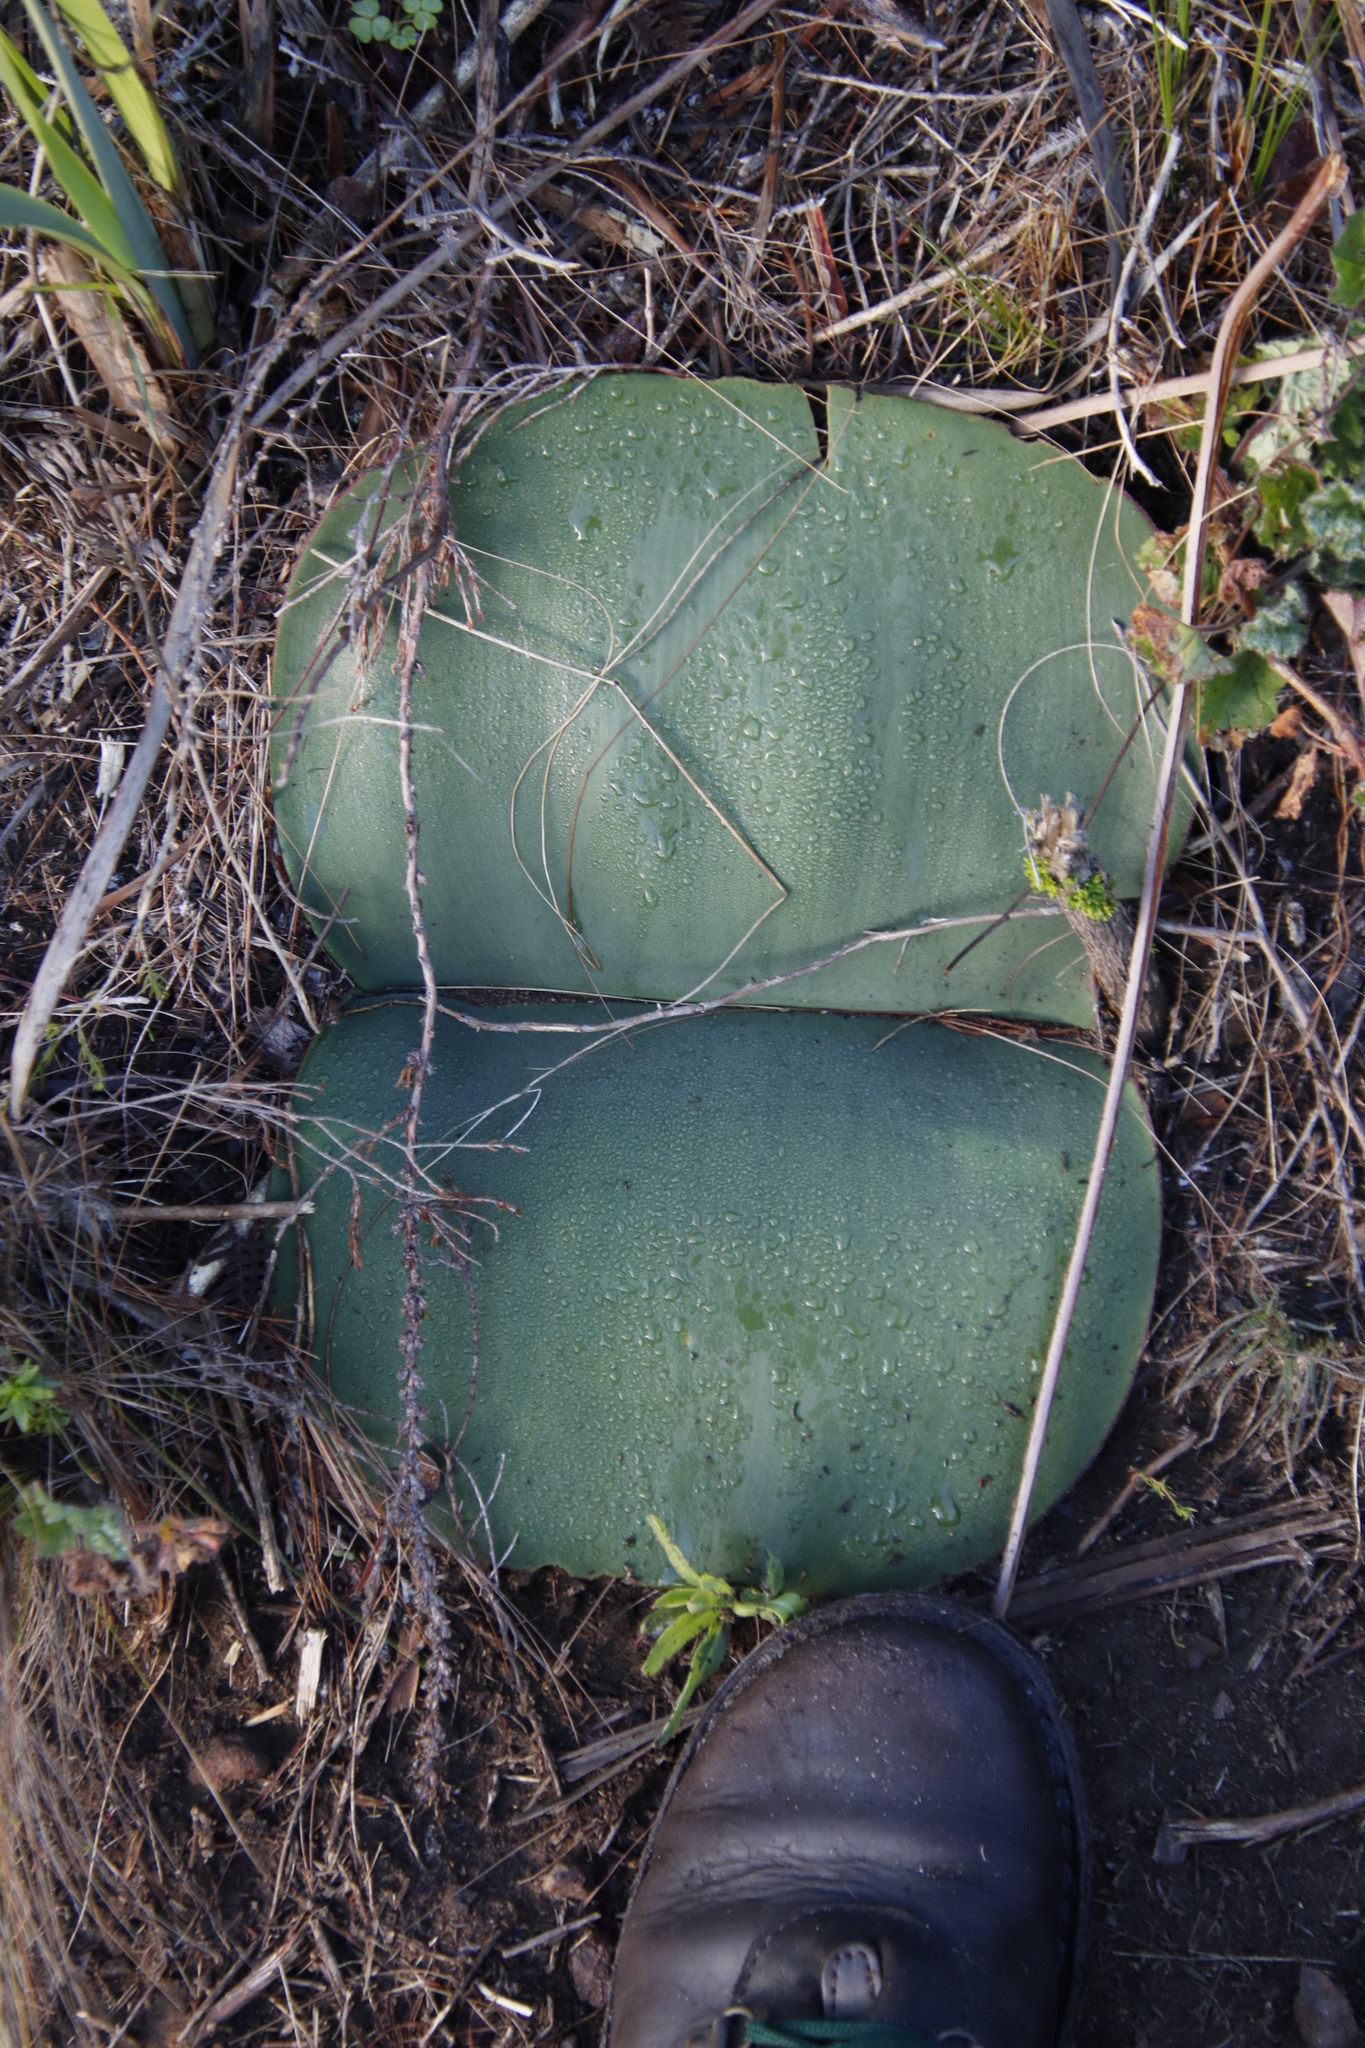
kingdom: Plantae
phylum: Tracheophyta
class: Liliopsida
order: Asparagales
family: Amaryllidaceae
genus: Haemanthus
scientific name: Haemanthus sanguineus
